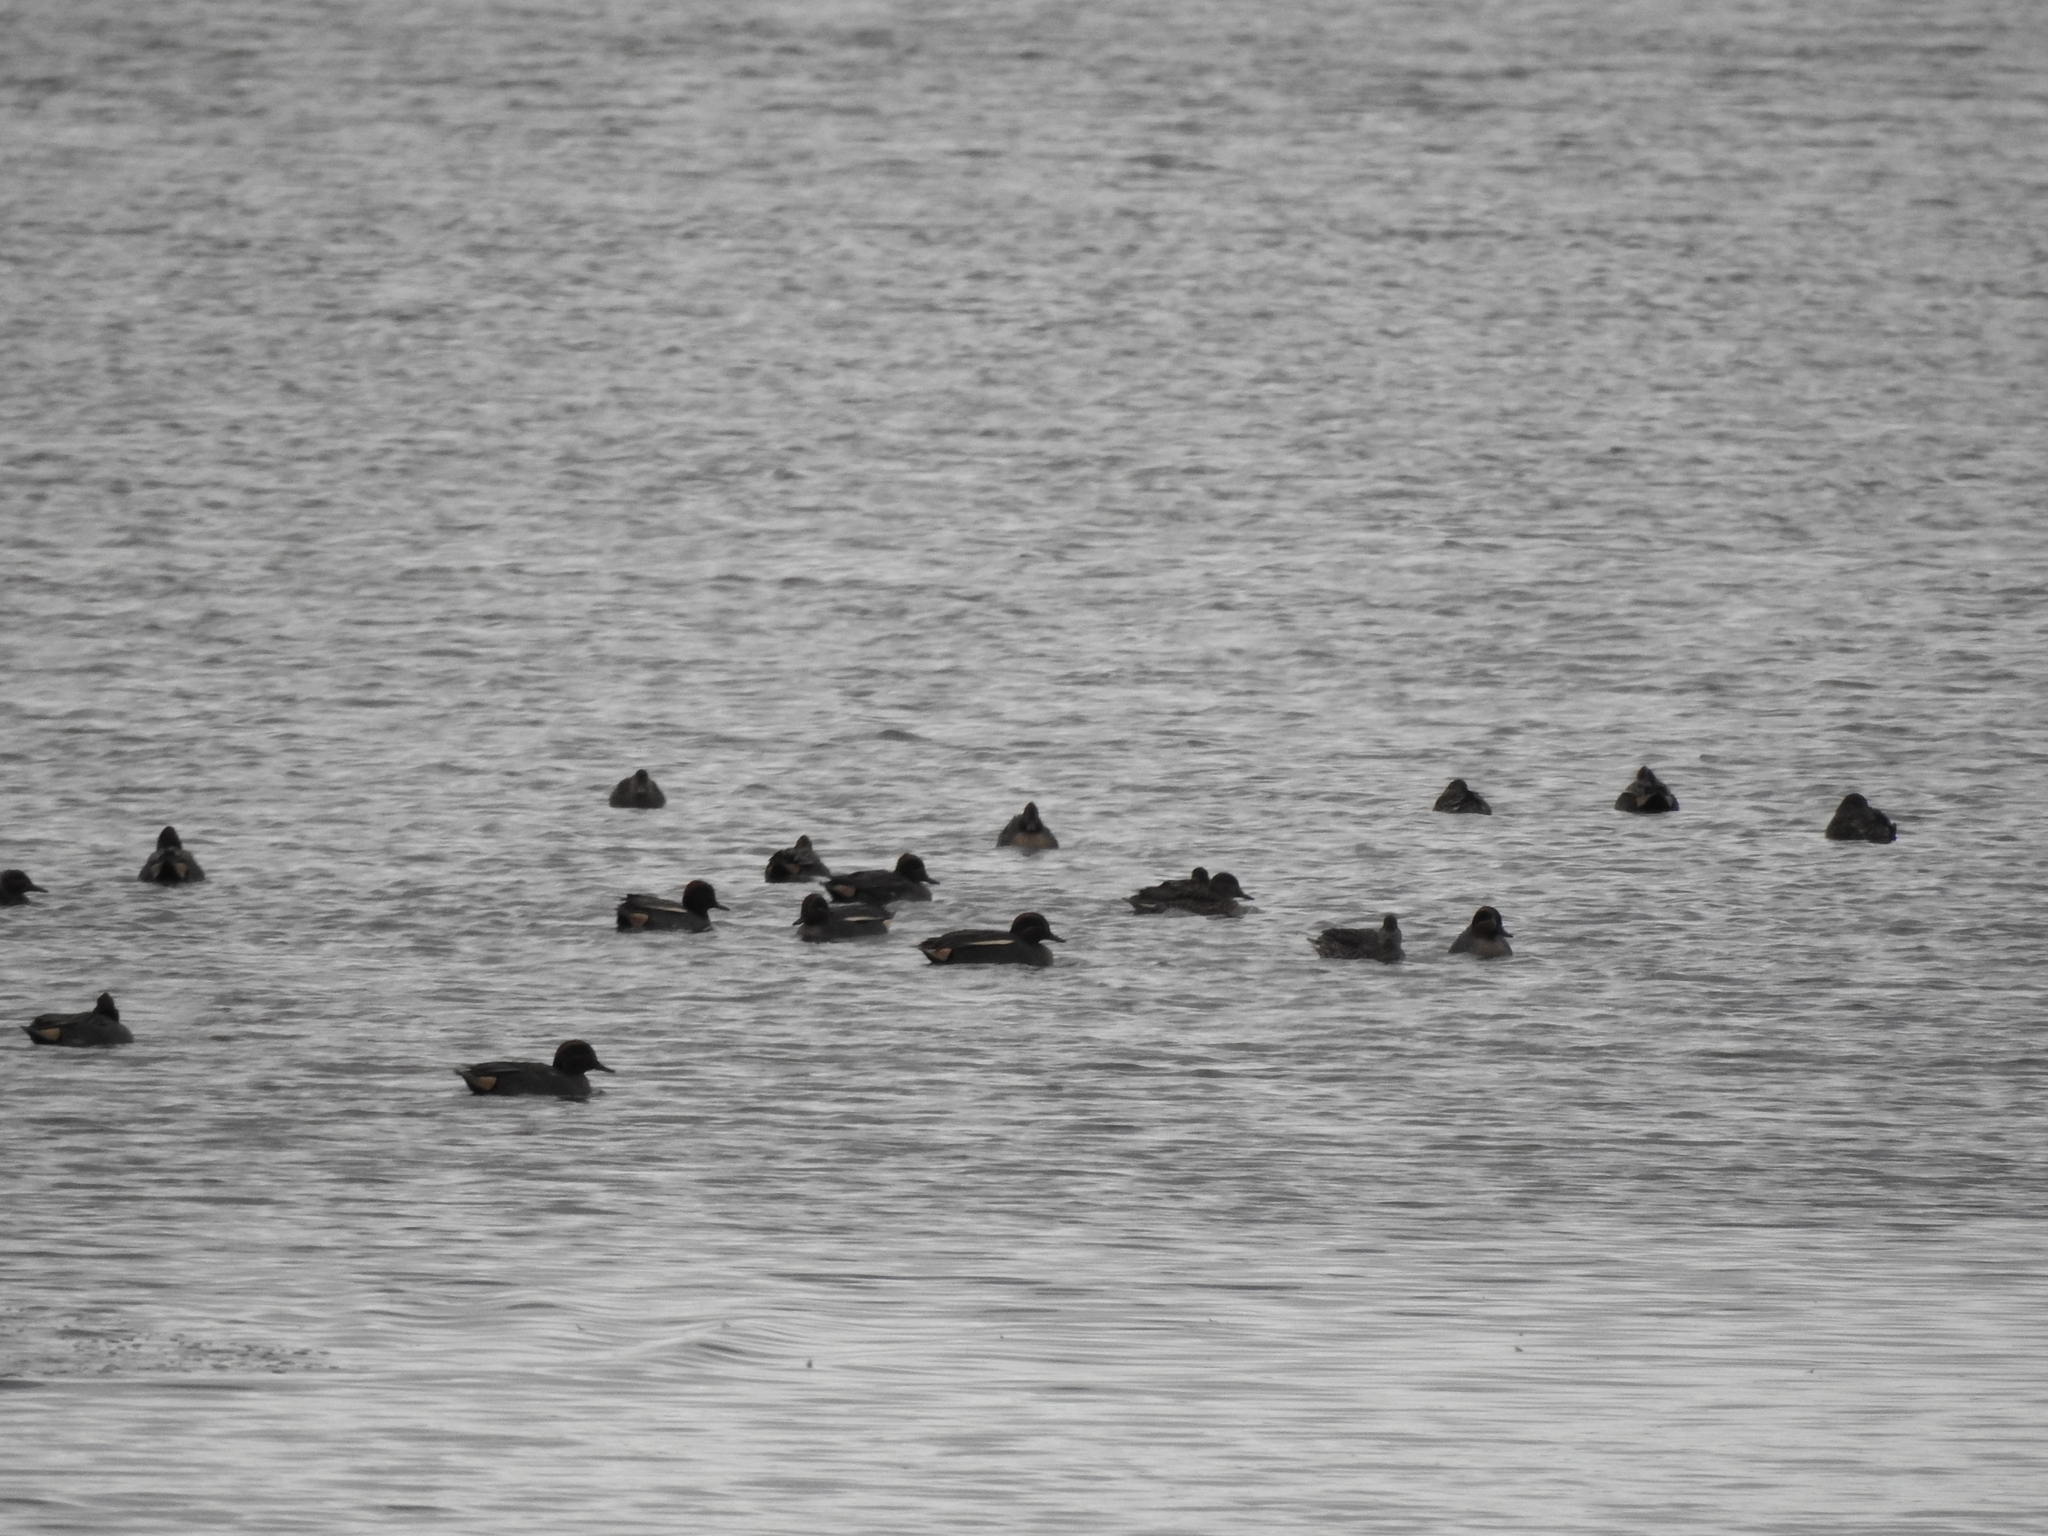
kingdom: Animalia
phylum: Chordata
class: Aves
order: Anseriformes
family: Anatidae
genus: Anas
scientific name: Anas crecca
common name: Eurasian teal
